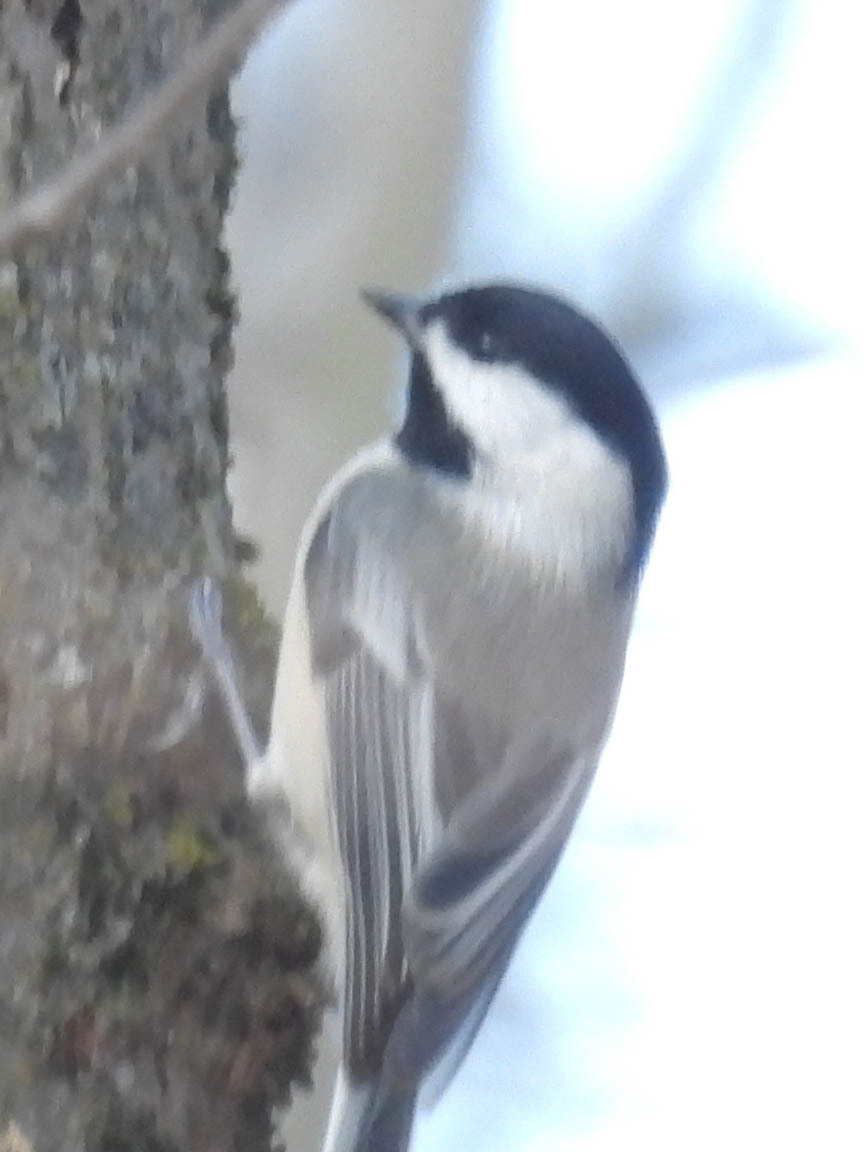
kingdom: Animalia
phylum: Chordata
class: Aves
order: Passeriformes
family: Paridae
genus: Poecile
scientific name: Poecile atricapillus
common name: Black-capped chickadee
